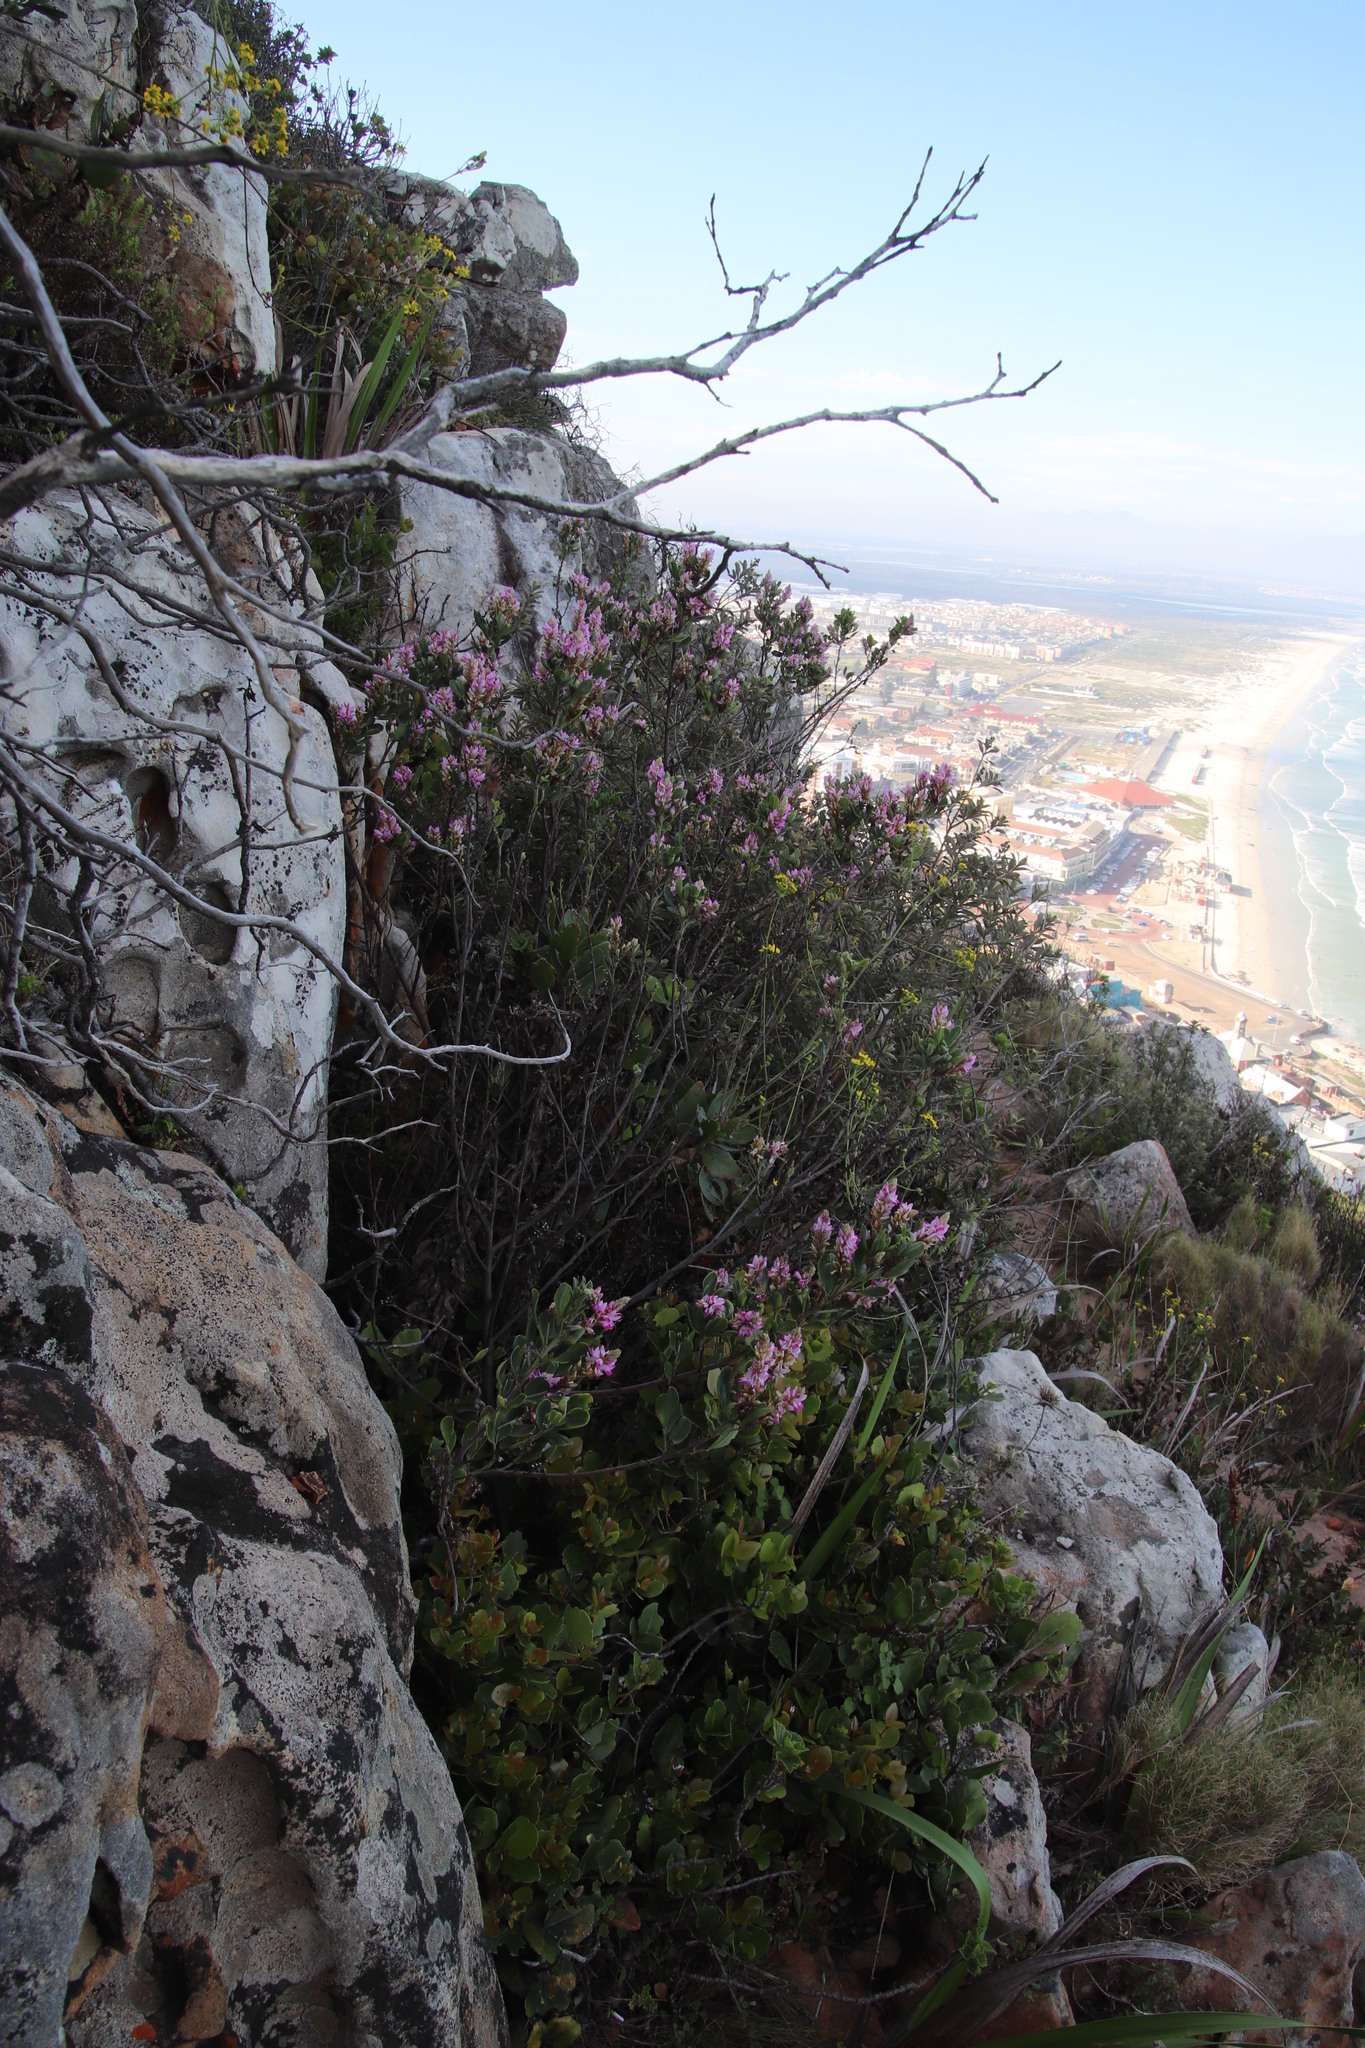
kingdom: Plantae
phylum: Tracheophyta
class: Magnoliopsida
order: Fabales
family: Fabaceae
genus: Indigofera
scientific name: Indigofera cytisoides
